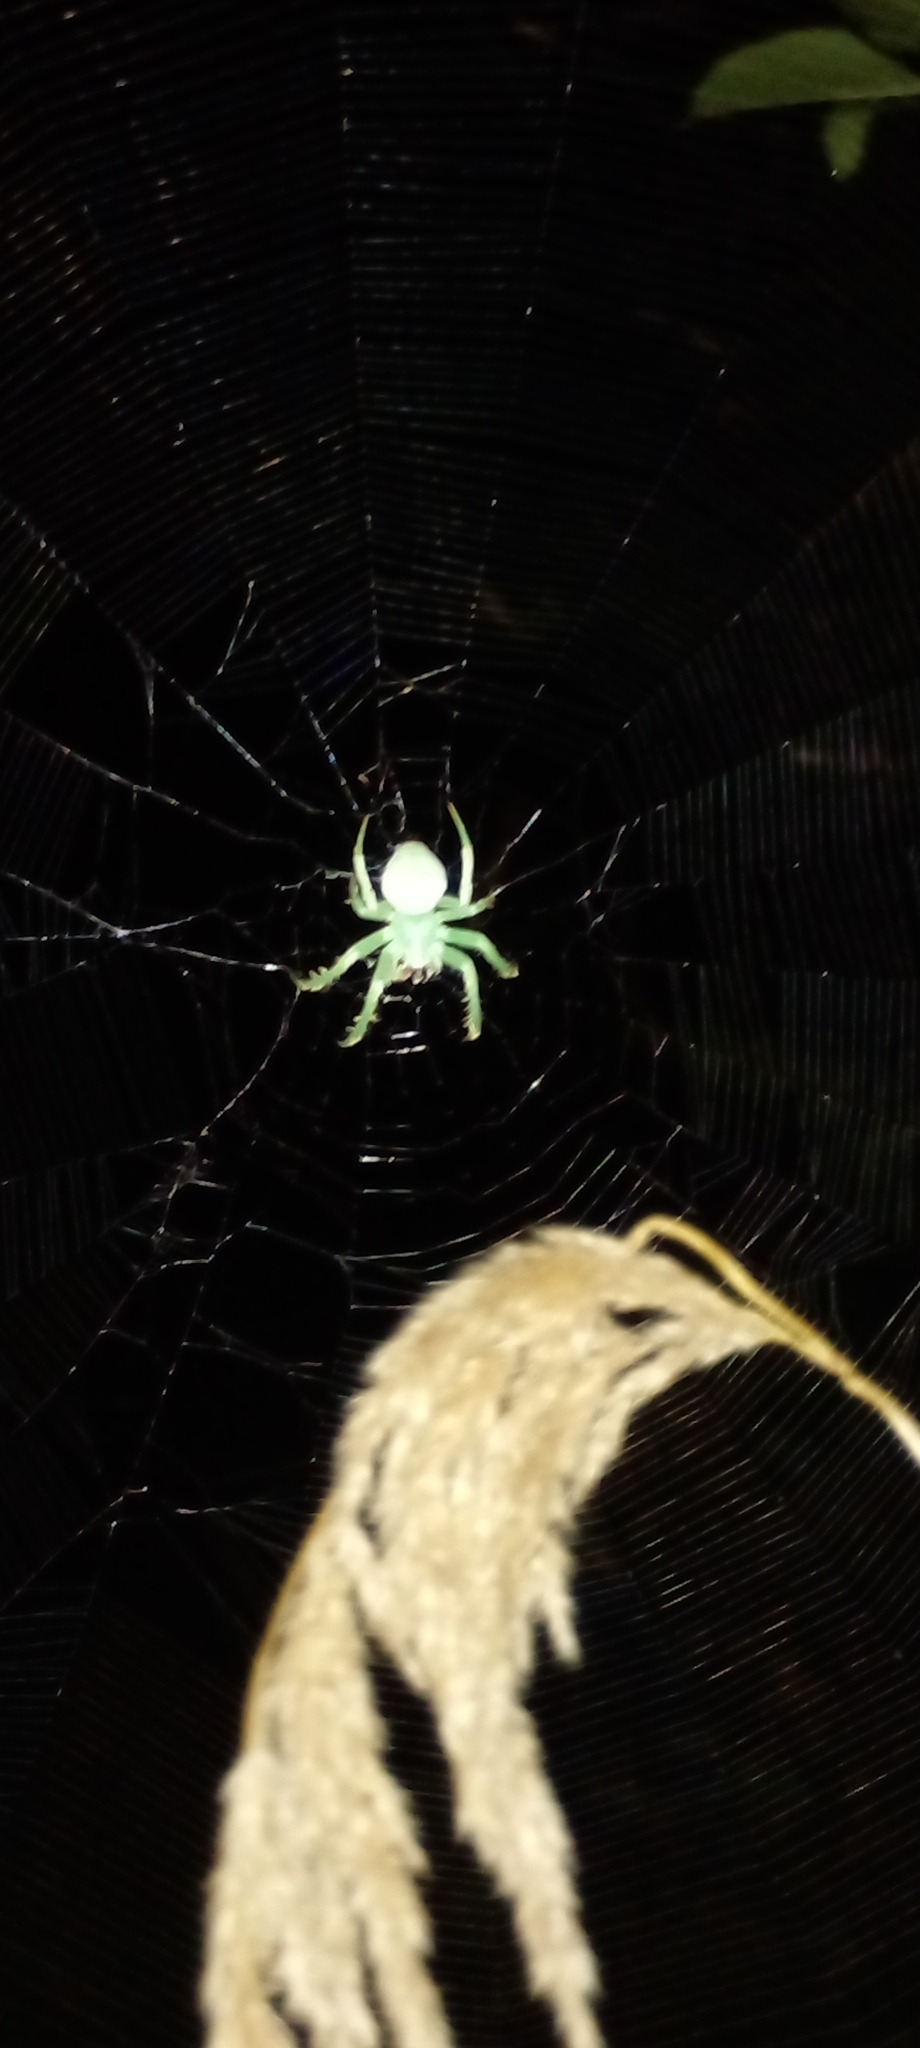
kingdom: Animalia
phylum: Arthropoda
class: Arachnida
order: Araneae
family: Araneidae
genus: Araneus
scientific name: Araneus uniformis
